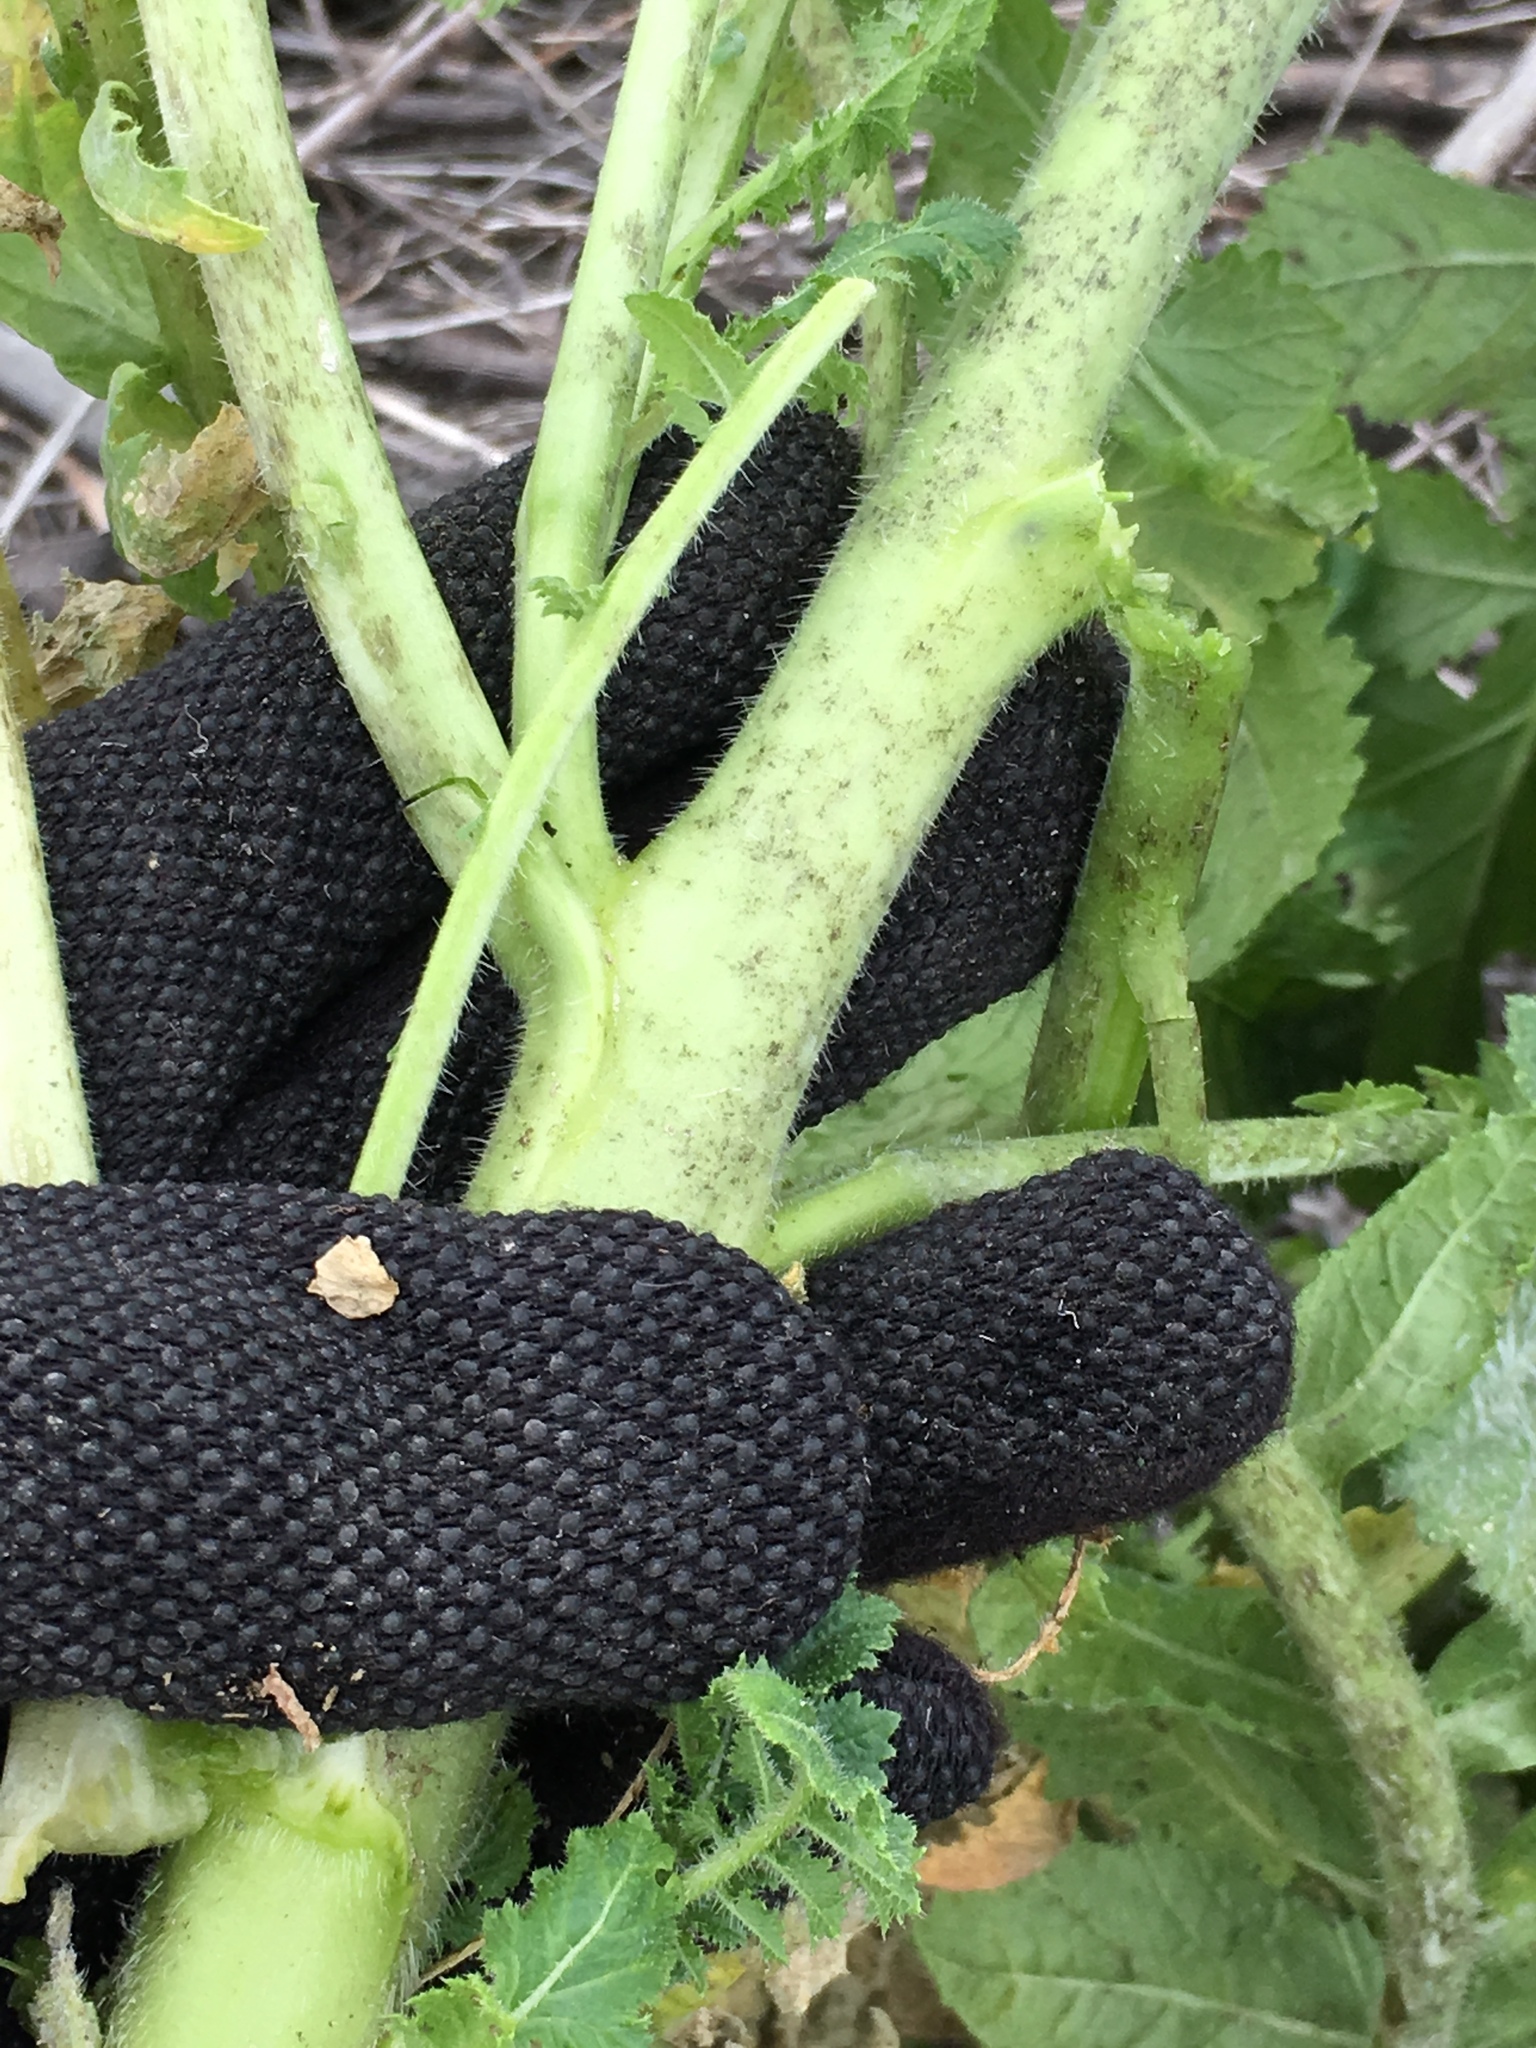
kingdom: Plantae
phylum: Tracheophyta
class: Magnoliopsida
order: Brassicales
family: Brassicaceae
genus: Brassica
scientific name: Brassica tournefortii
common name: Pale cabbage
